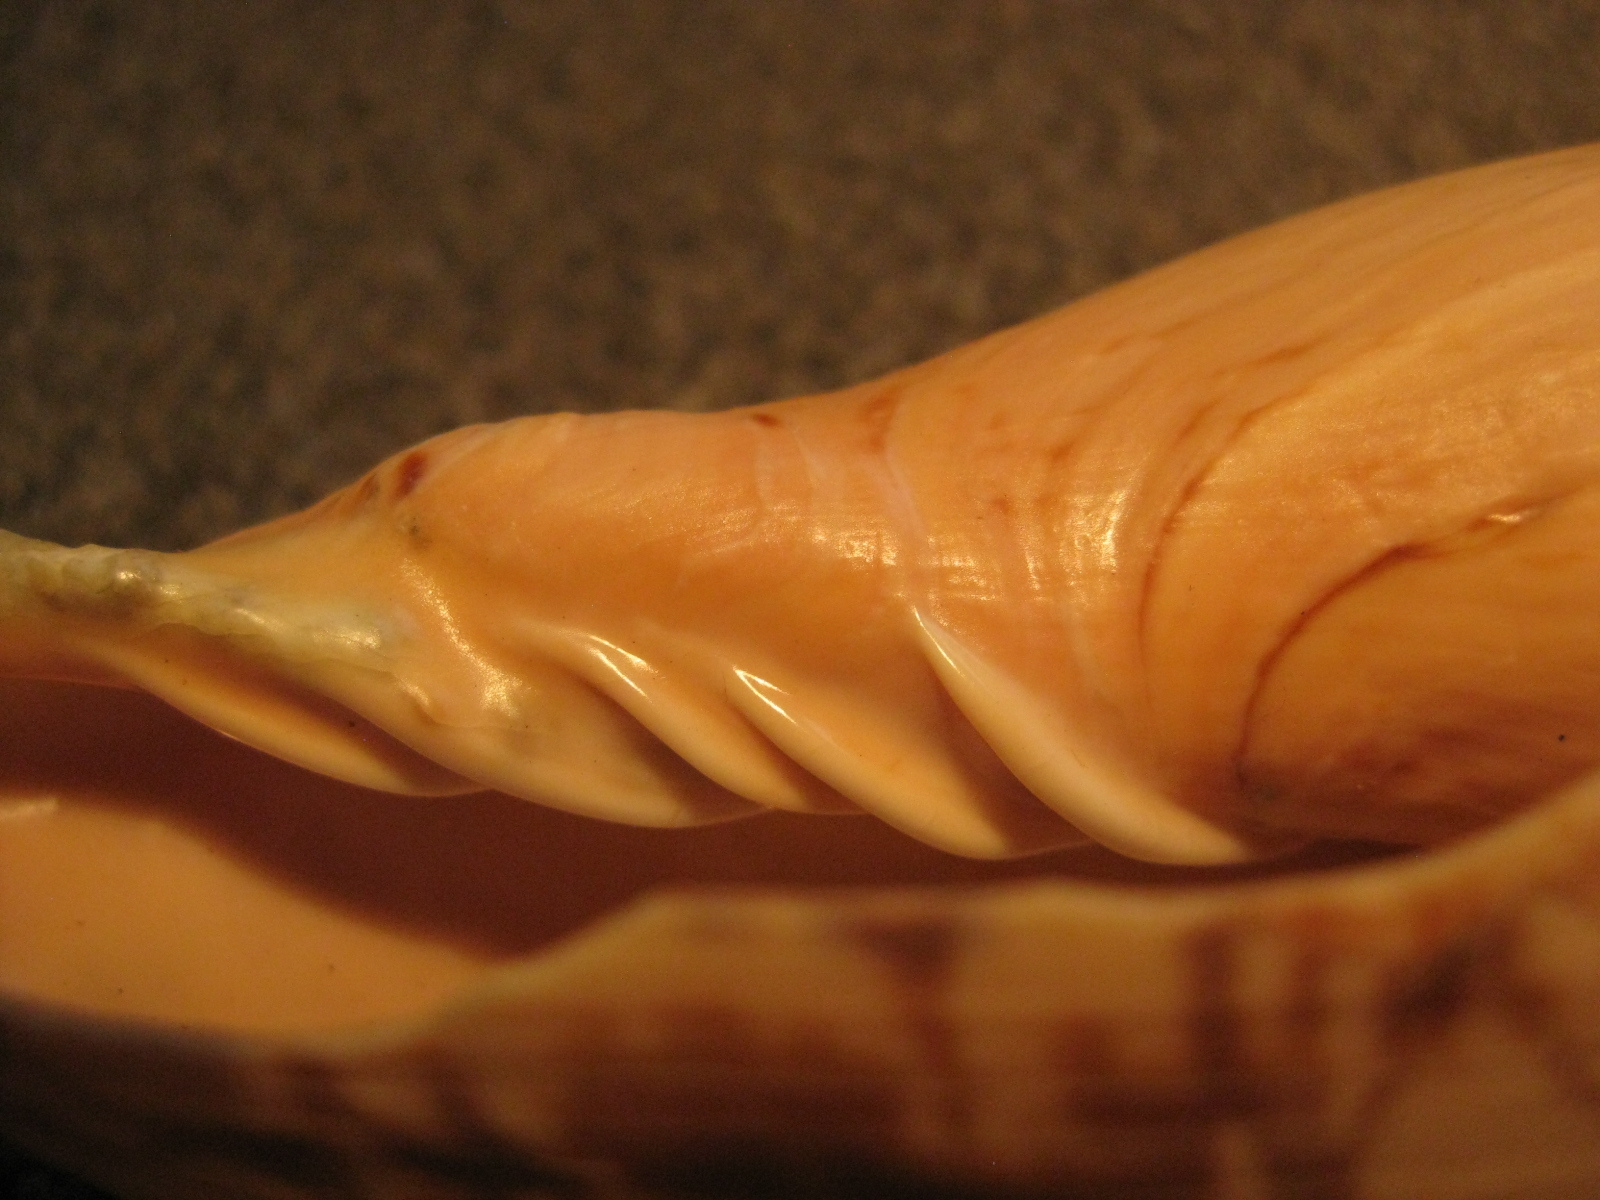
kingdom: Animalia
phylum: Mollusca
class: Gastropoda
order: Neogastropoda
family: Volutidae
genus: Alcithoe
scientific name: Alcithoe fissurata
